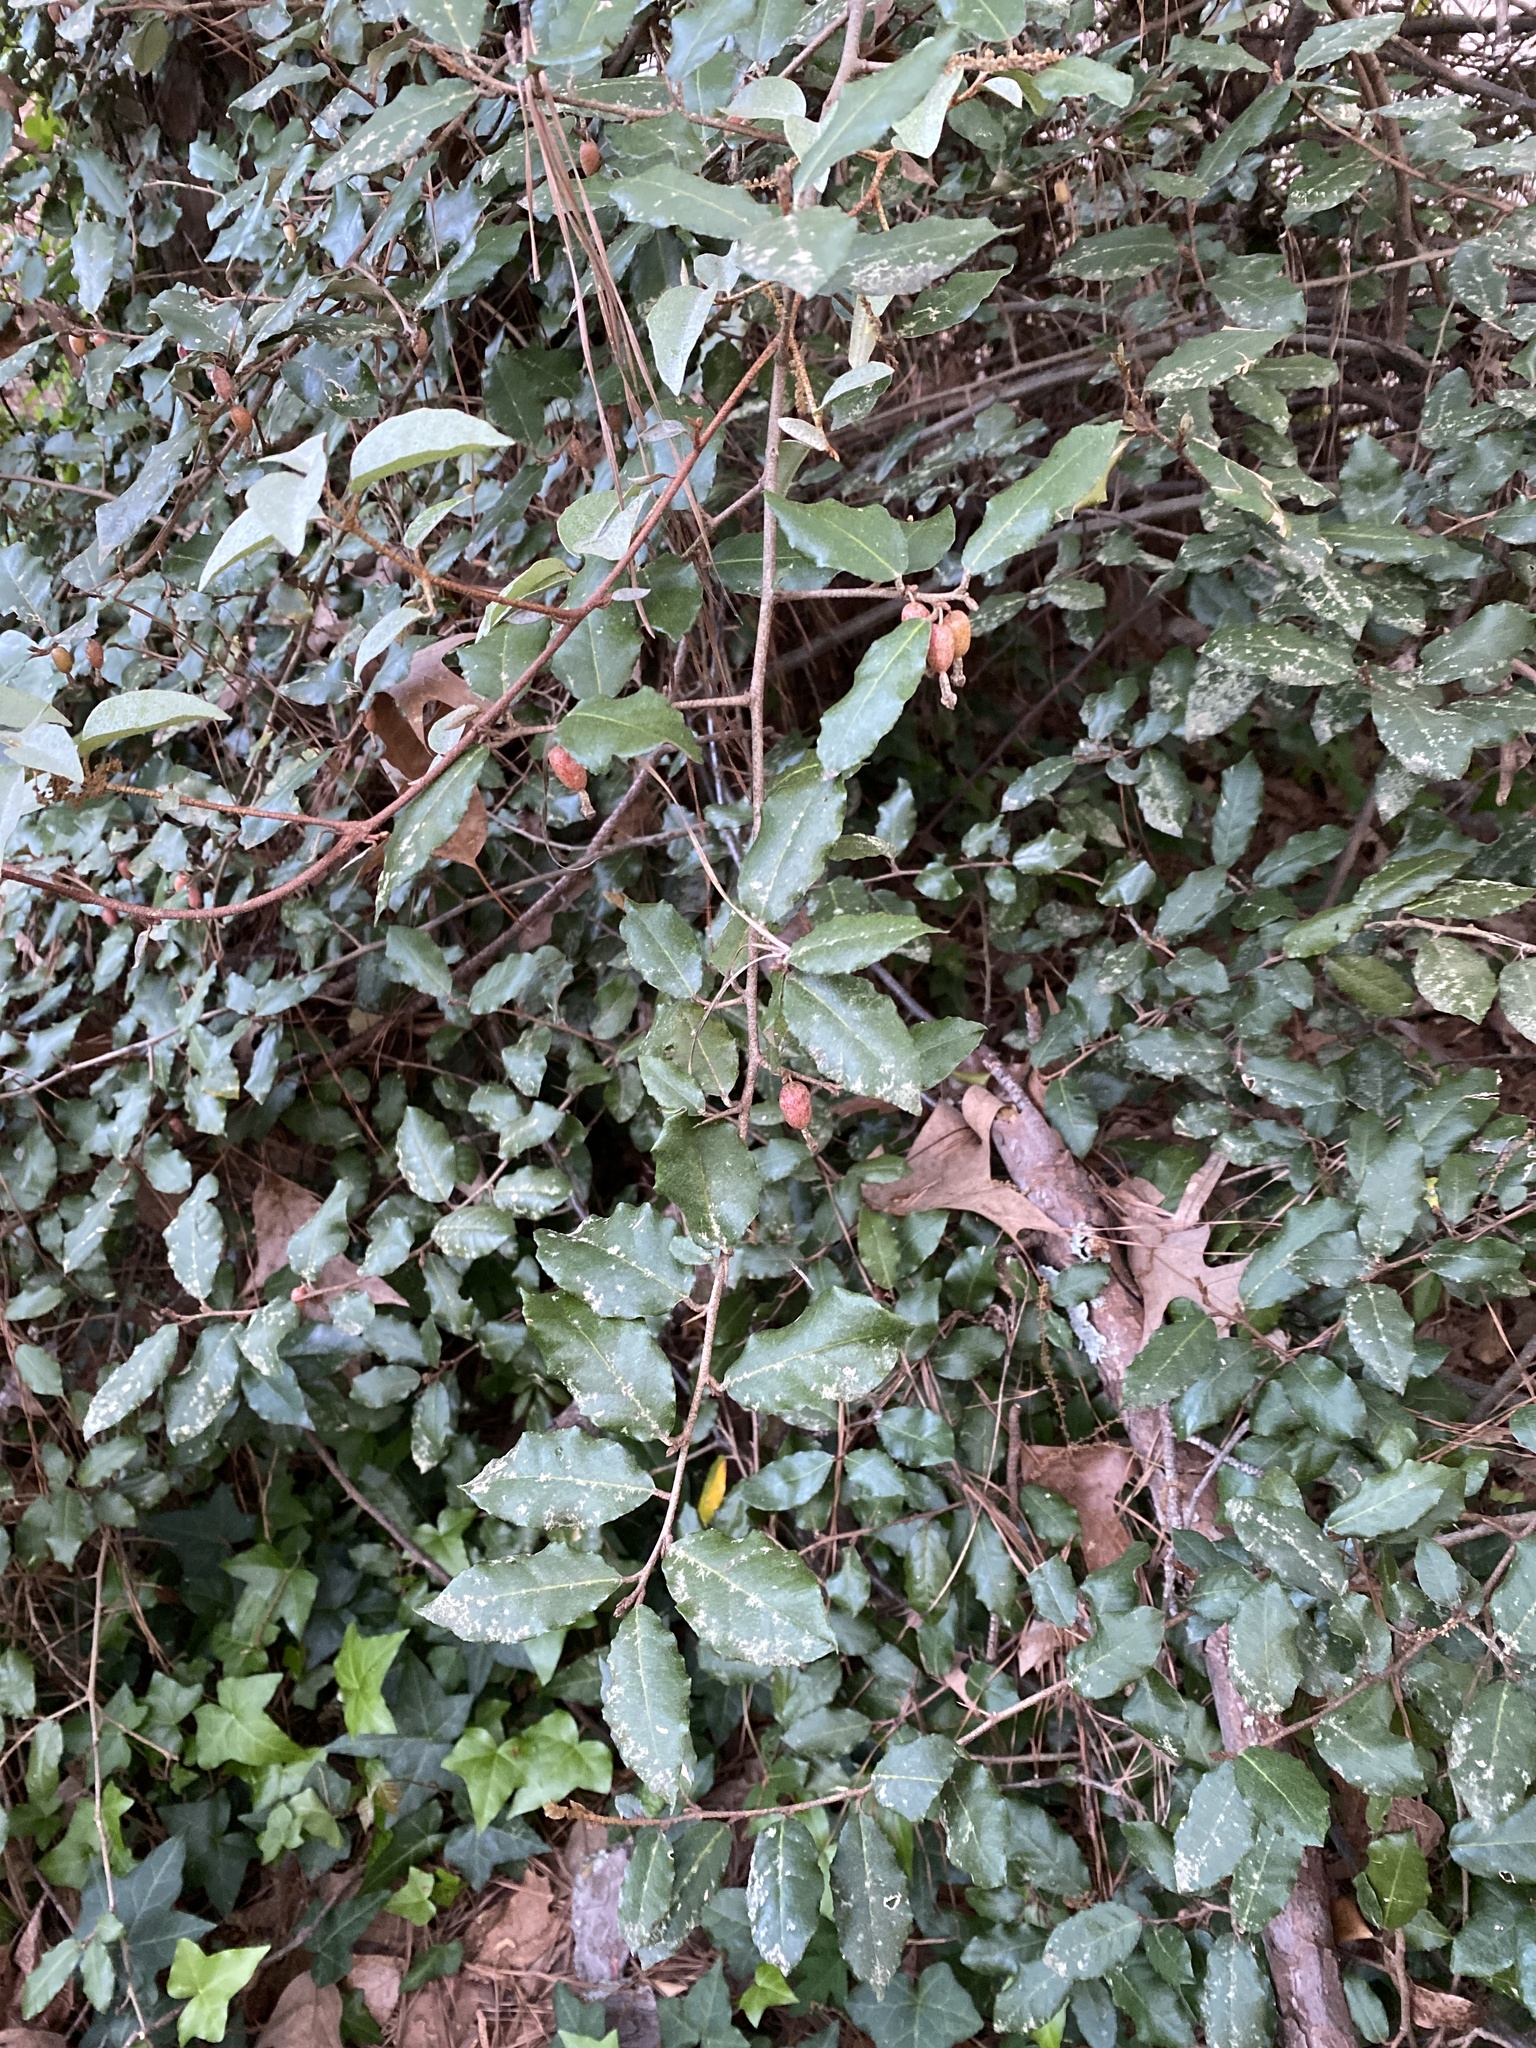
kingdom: Plantae
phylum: Tracheophyta
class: Magnoliopsida
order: Rosales
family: Elaeagnaceae
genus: Elaeagnus
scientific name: Elaeagnus pungens
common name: Spiny oleaster
